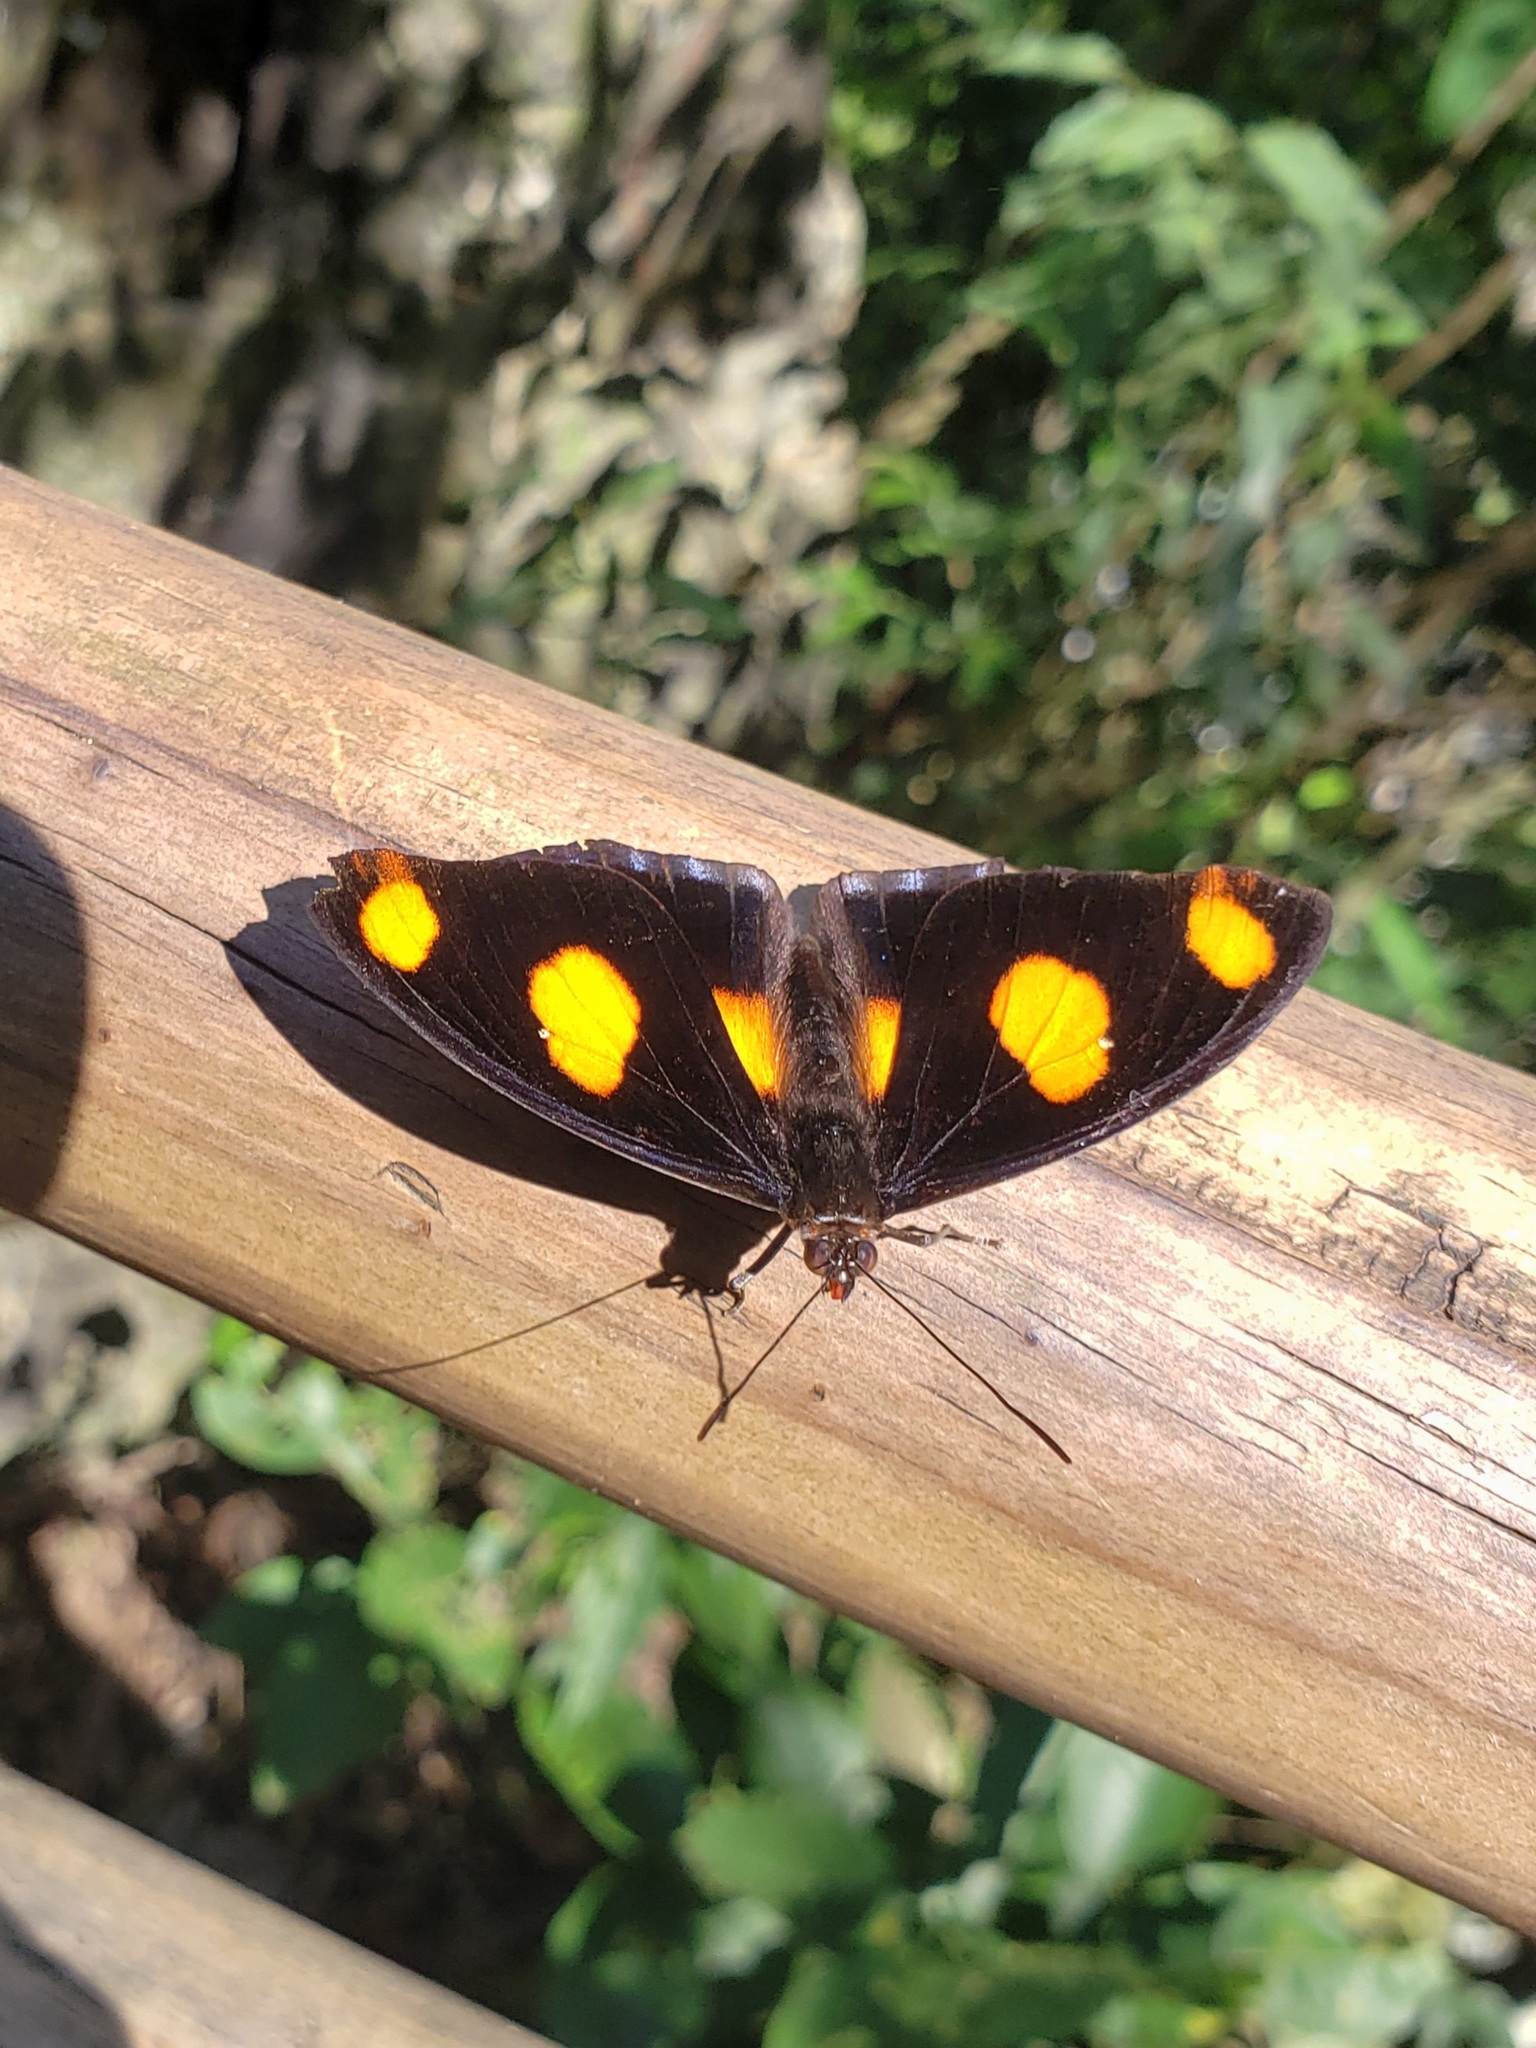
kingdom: Animalia
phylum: Arthropoda
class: Insecta
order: Lepidoptera
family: Nymphalidae
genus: Catonephele
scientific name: Catonephele numilia
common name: Blue-frosted banner
